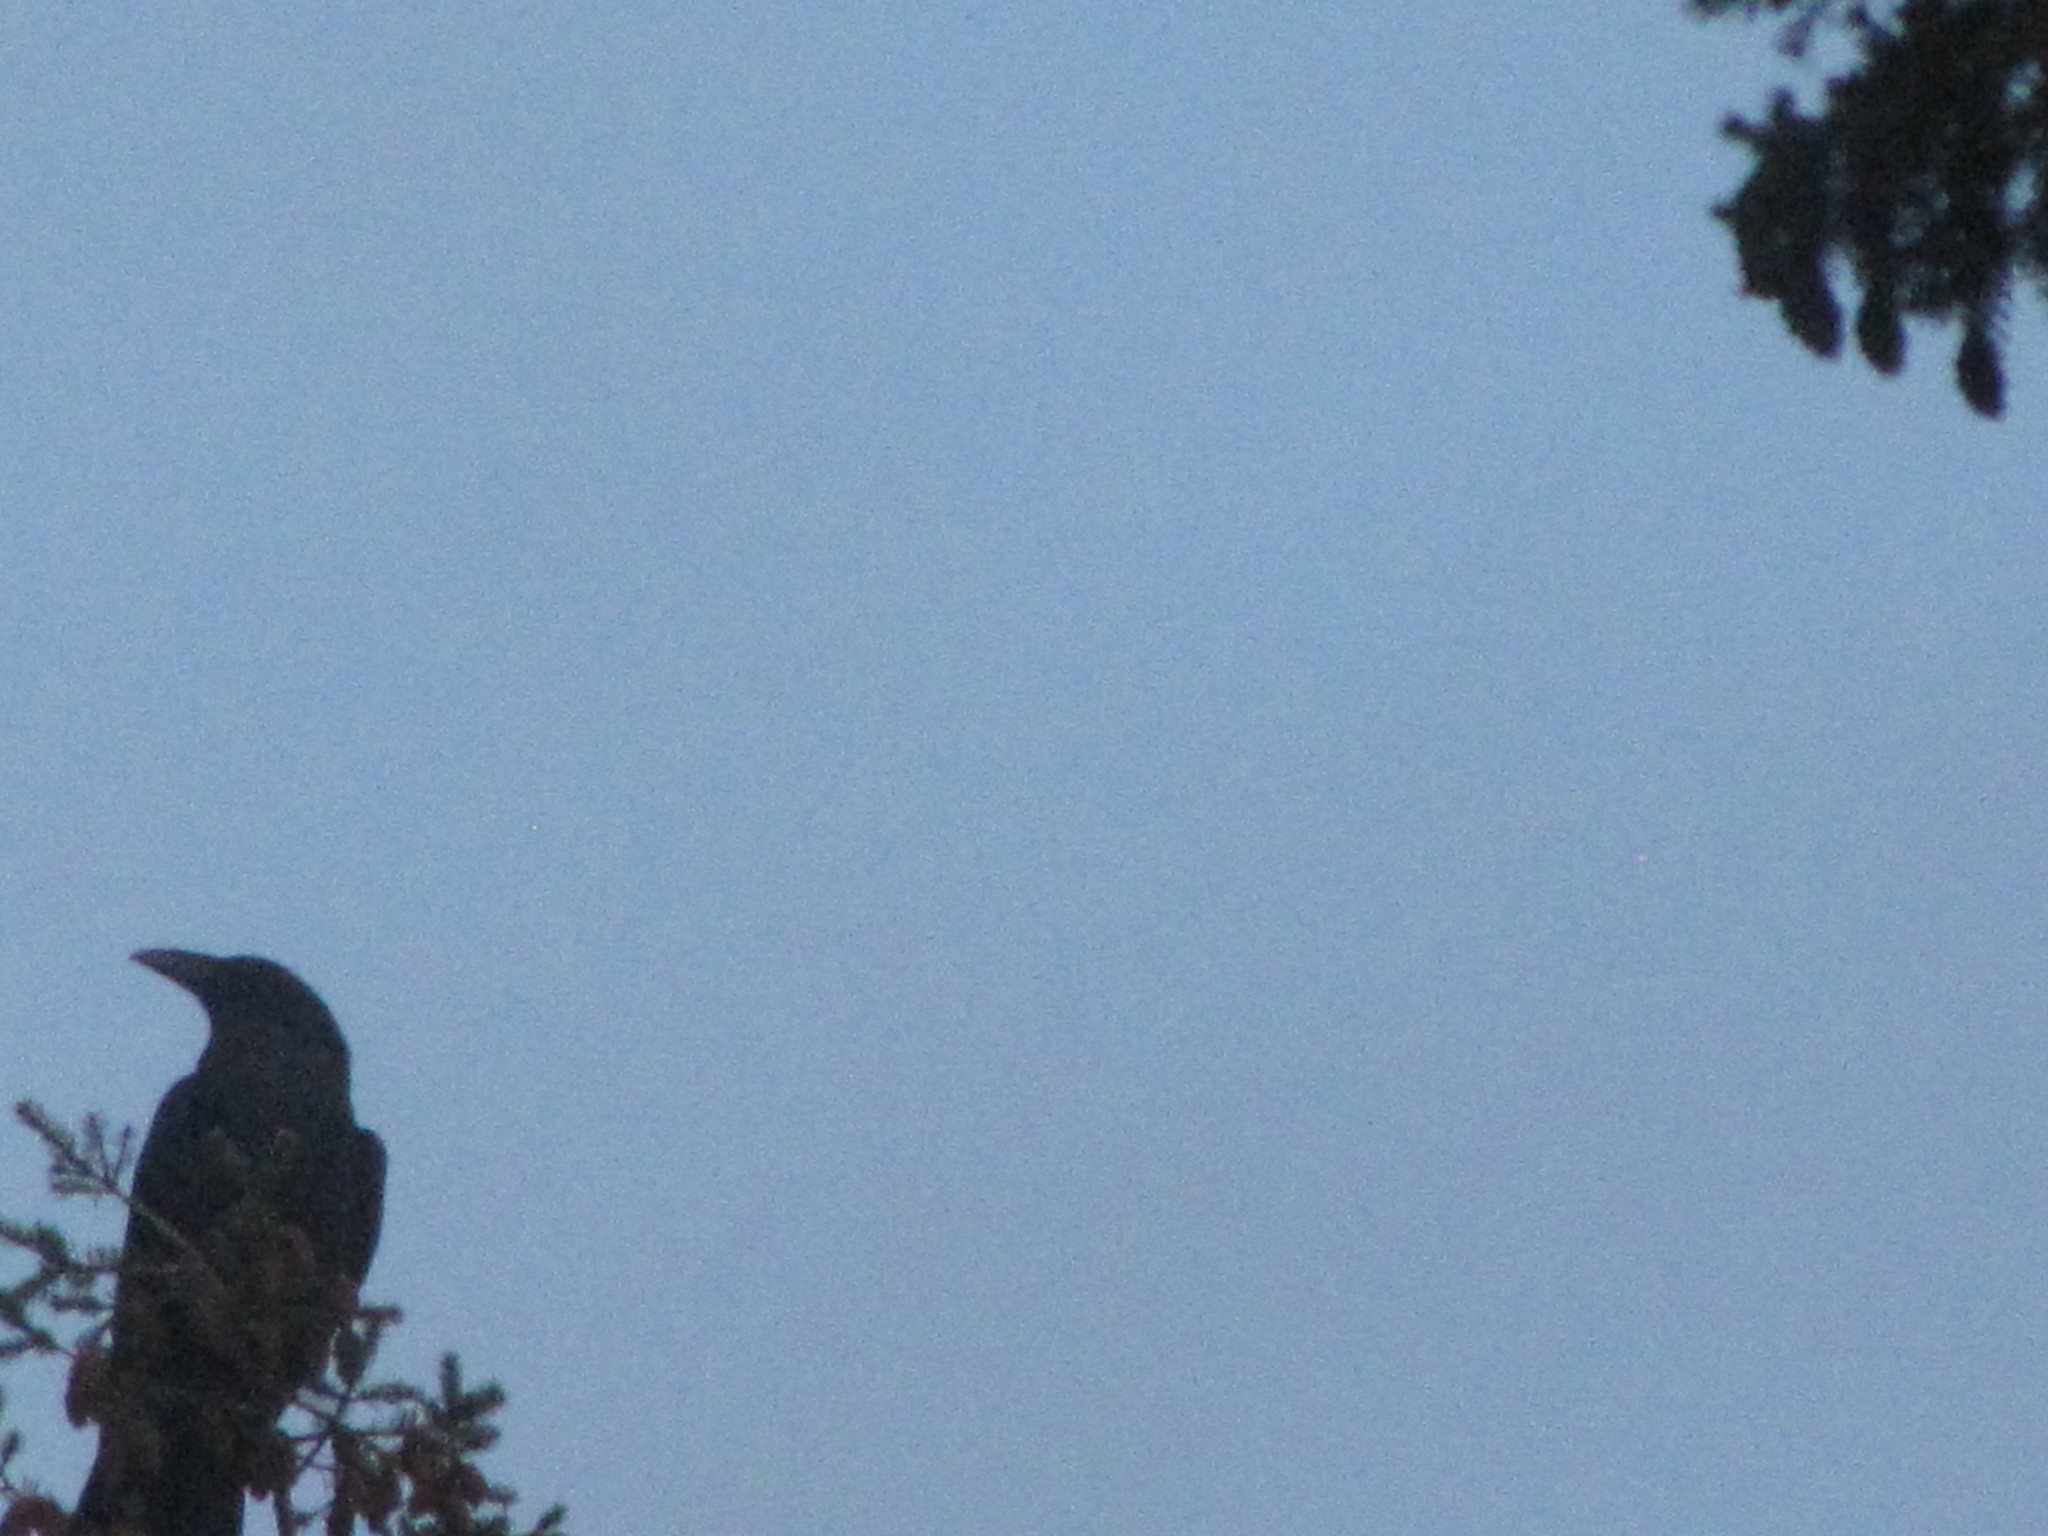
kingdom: Animalia
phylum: Chordata
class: Aves
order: Passeriformes
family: Corvidae
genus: Corvus
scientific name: Corvus corax
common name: Common raven
